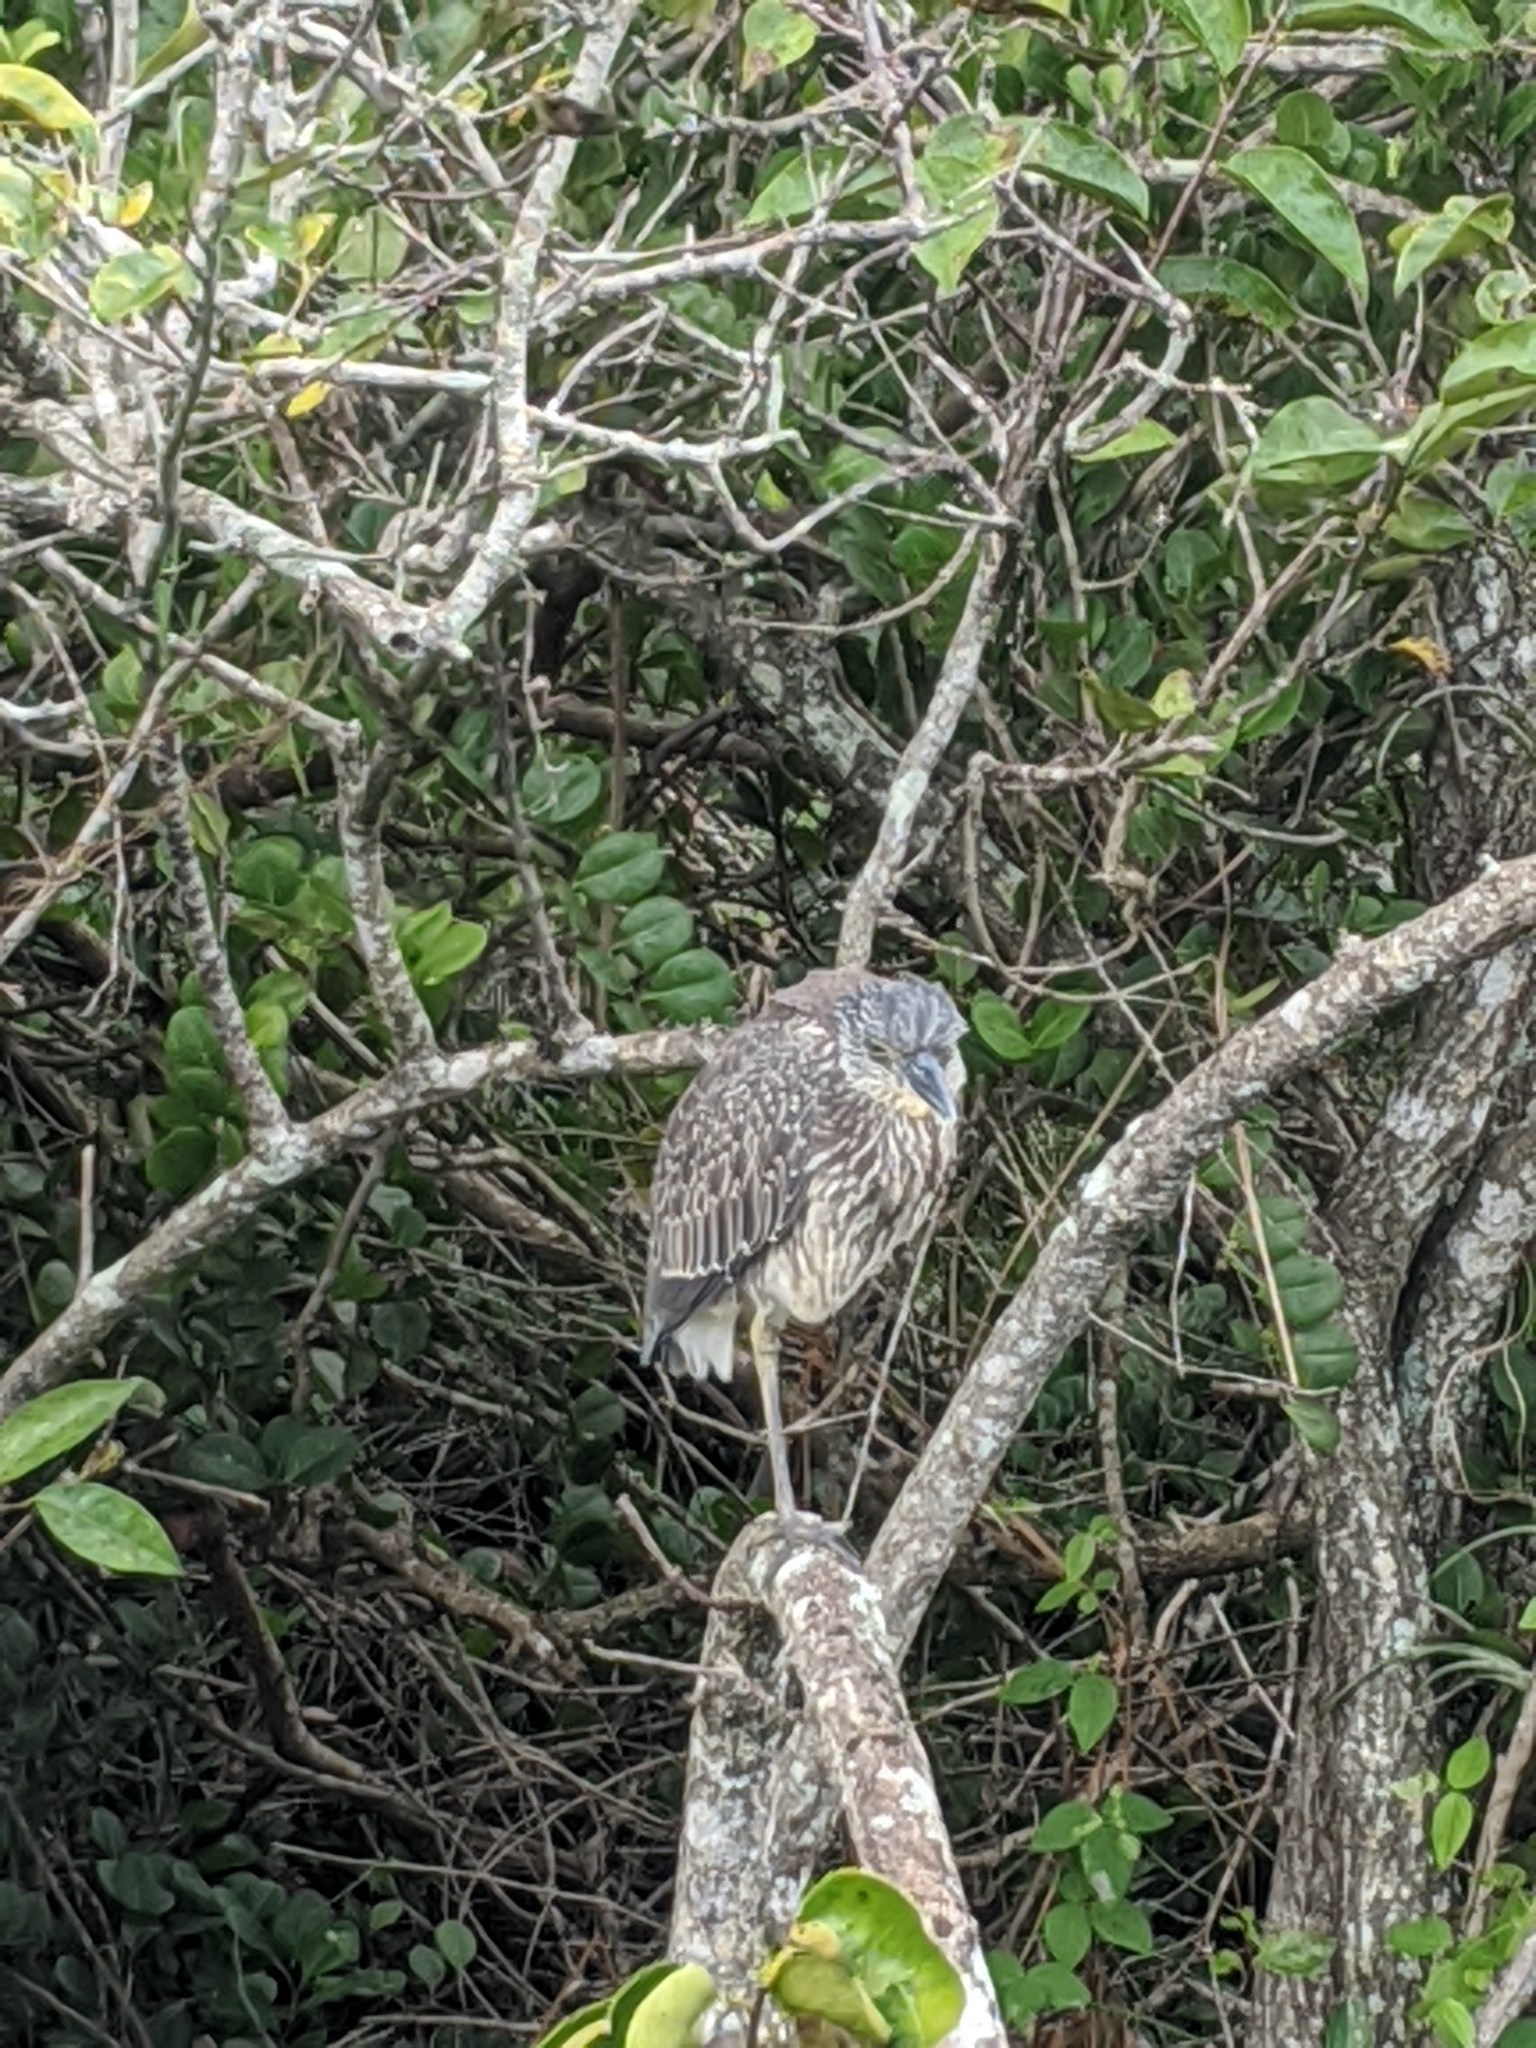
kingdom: Animalia
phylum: Chordata
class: Aves
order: Pelecaniformes
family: Ardeidae
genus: Nyctanassa
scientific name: Nyctanassa violacea
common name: Yellow-crowned night heron
